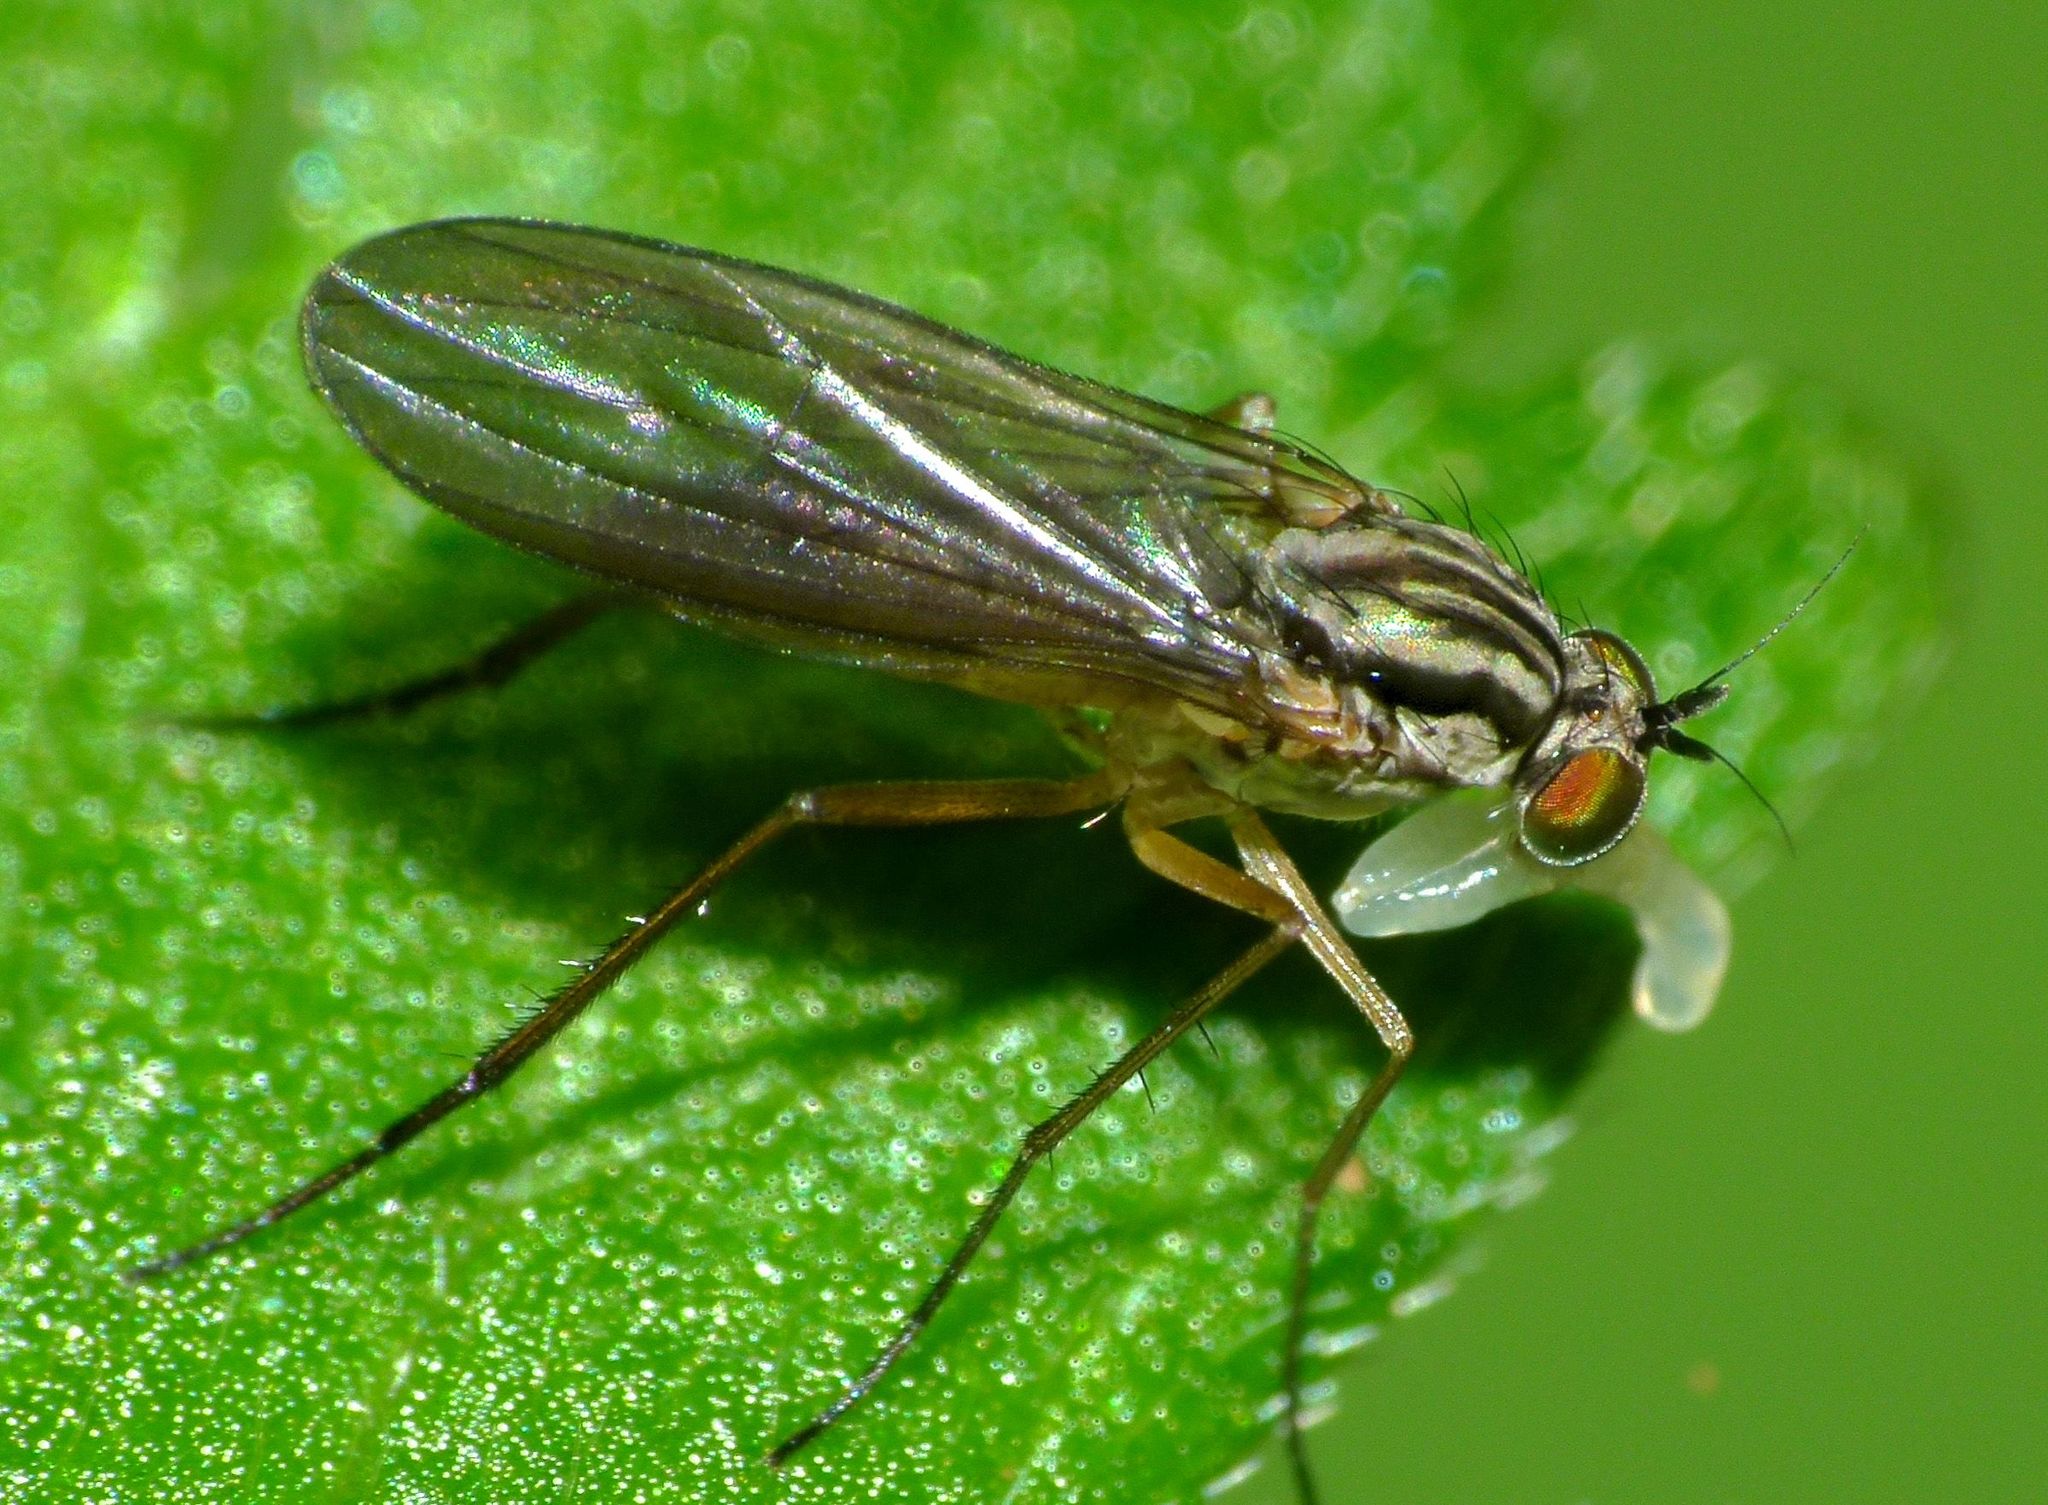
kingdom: Animalia
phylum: Arthropoda
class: Insecta
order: Diptera
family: Dolichopodidae
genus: Sympycnus
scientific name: Sympycnus longipilus
